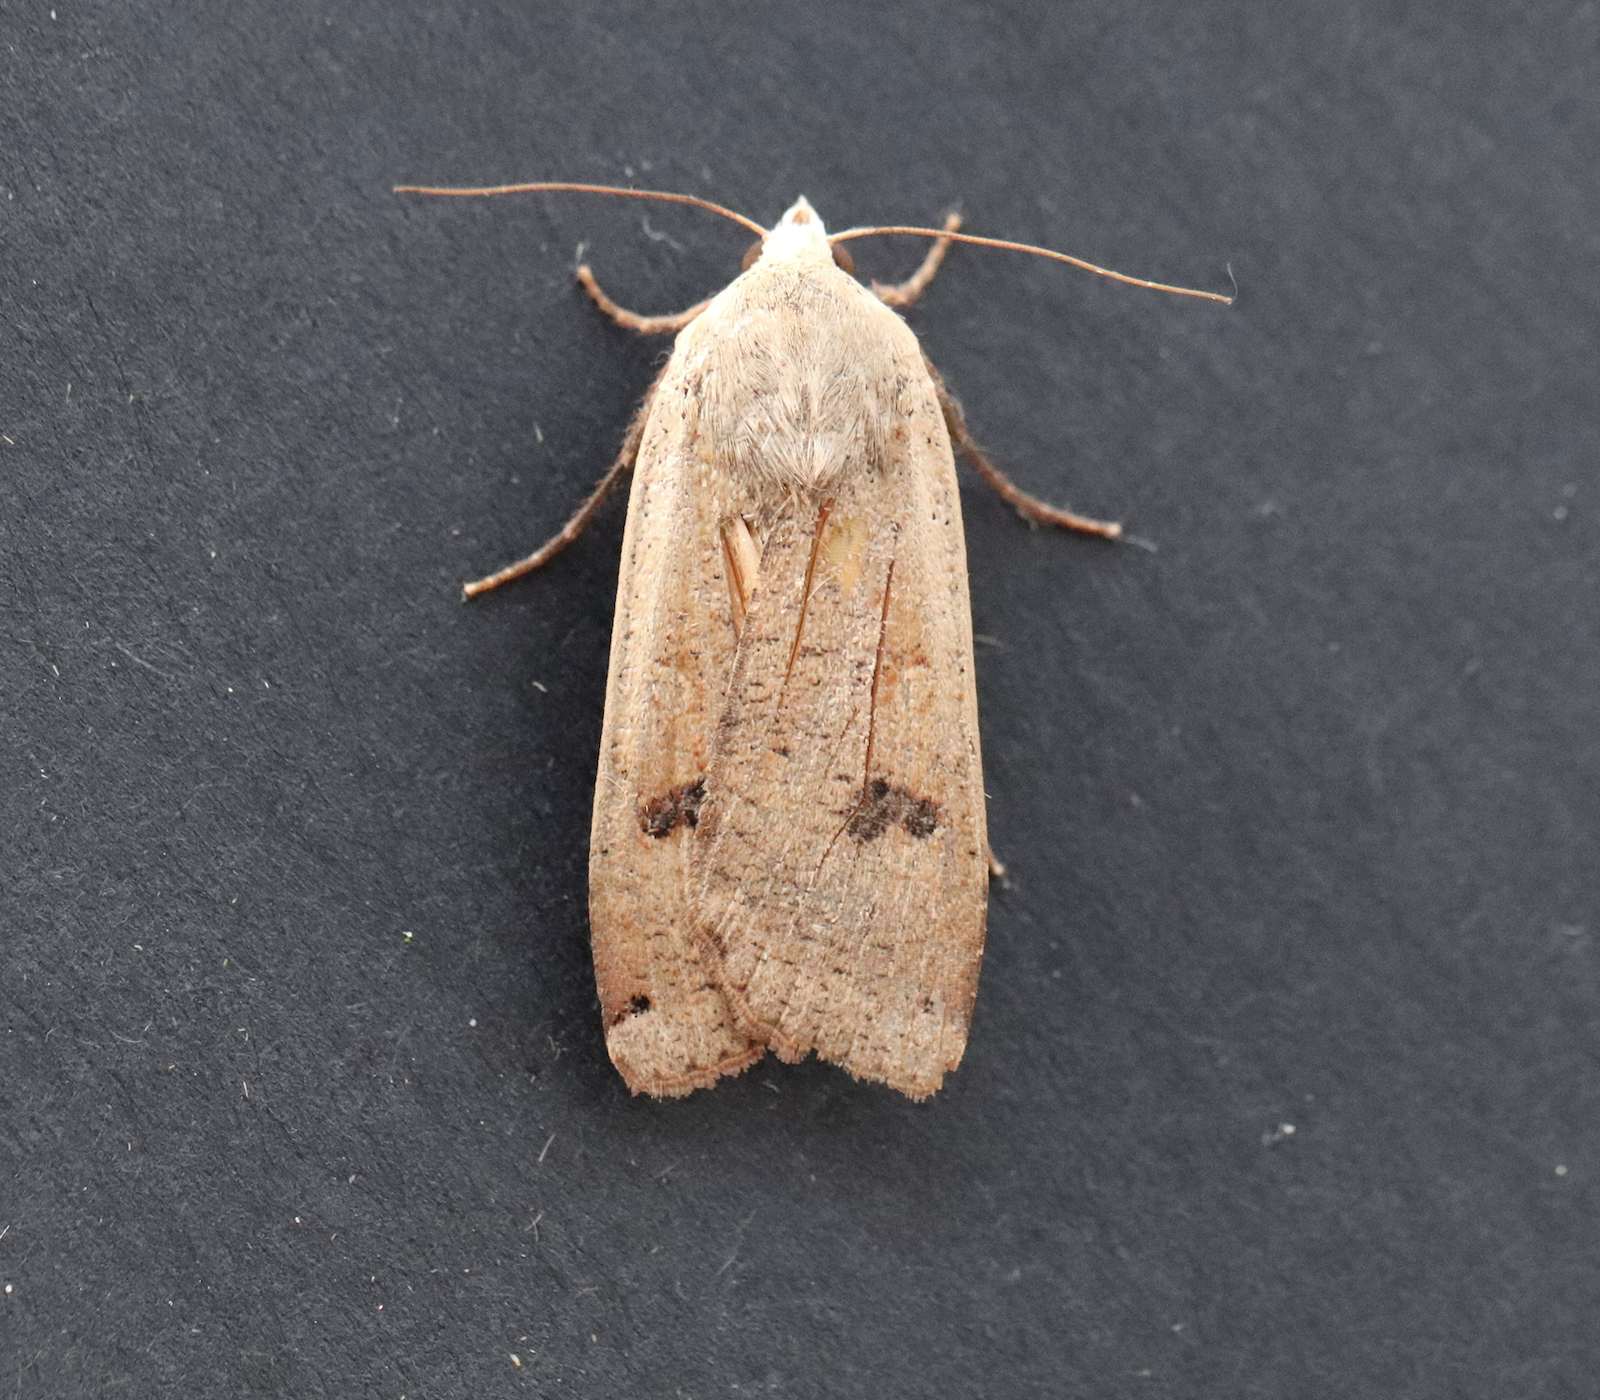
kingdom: Animalia
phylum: Arthropoda
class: Insecta
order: Lepidoptera
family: Noctuidae
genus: Noctua
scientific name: Noctua pronuba
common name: Large yellow underwing
